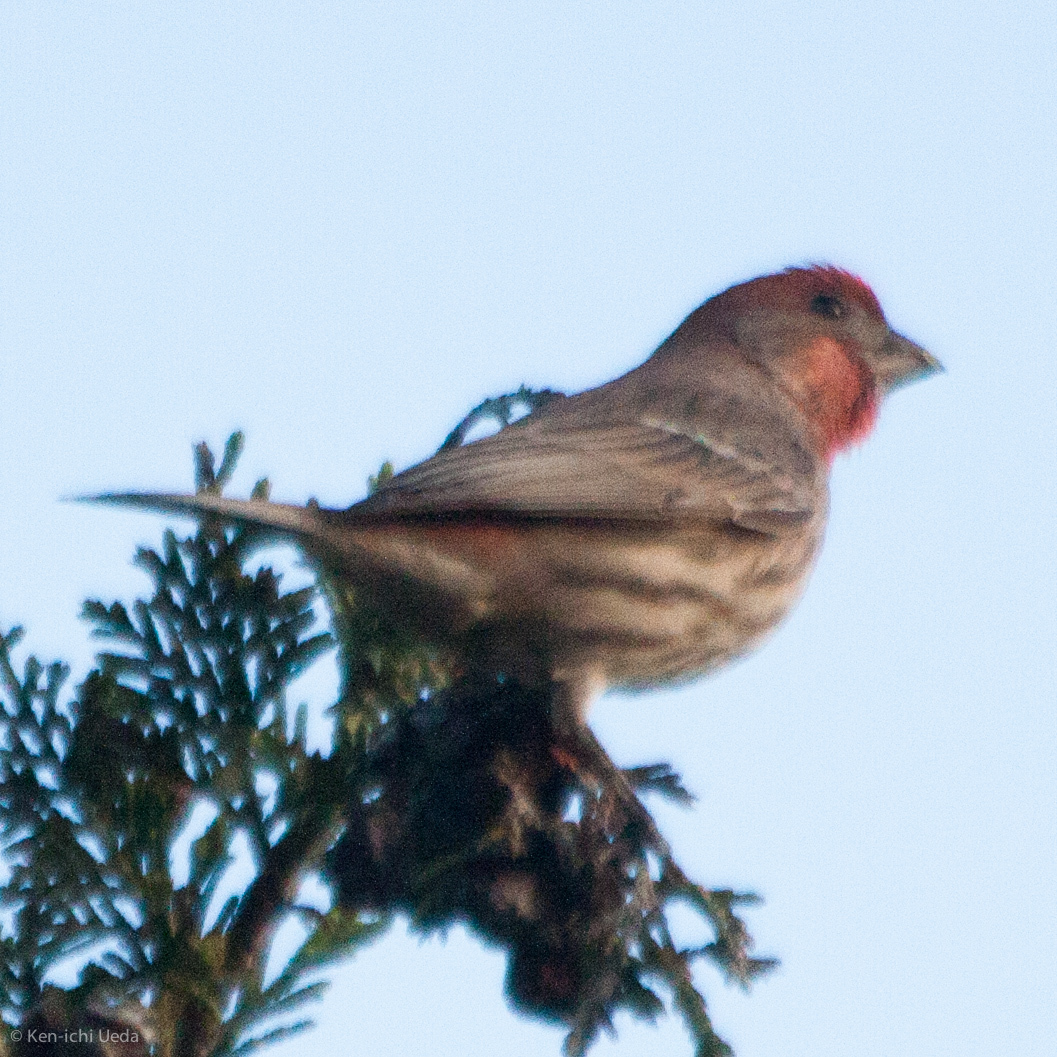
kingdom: Animalia
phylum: Chordata
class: Aves
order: Passeriformes
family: Fringillidae
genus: Haemorhous
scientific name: Haemorhous mexicanus
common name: House finch
